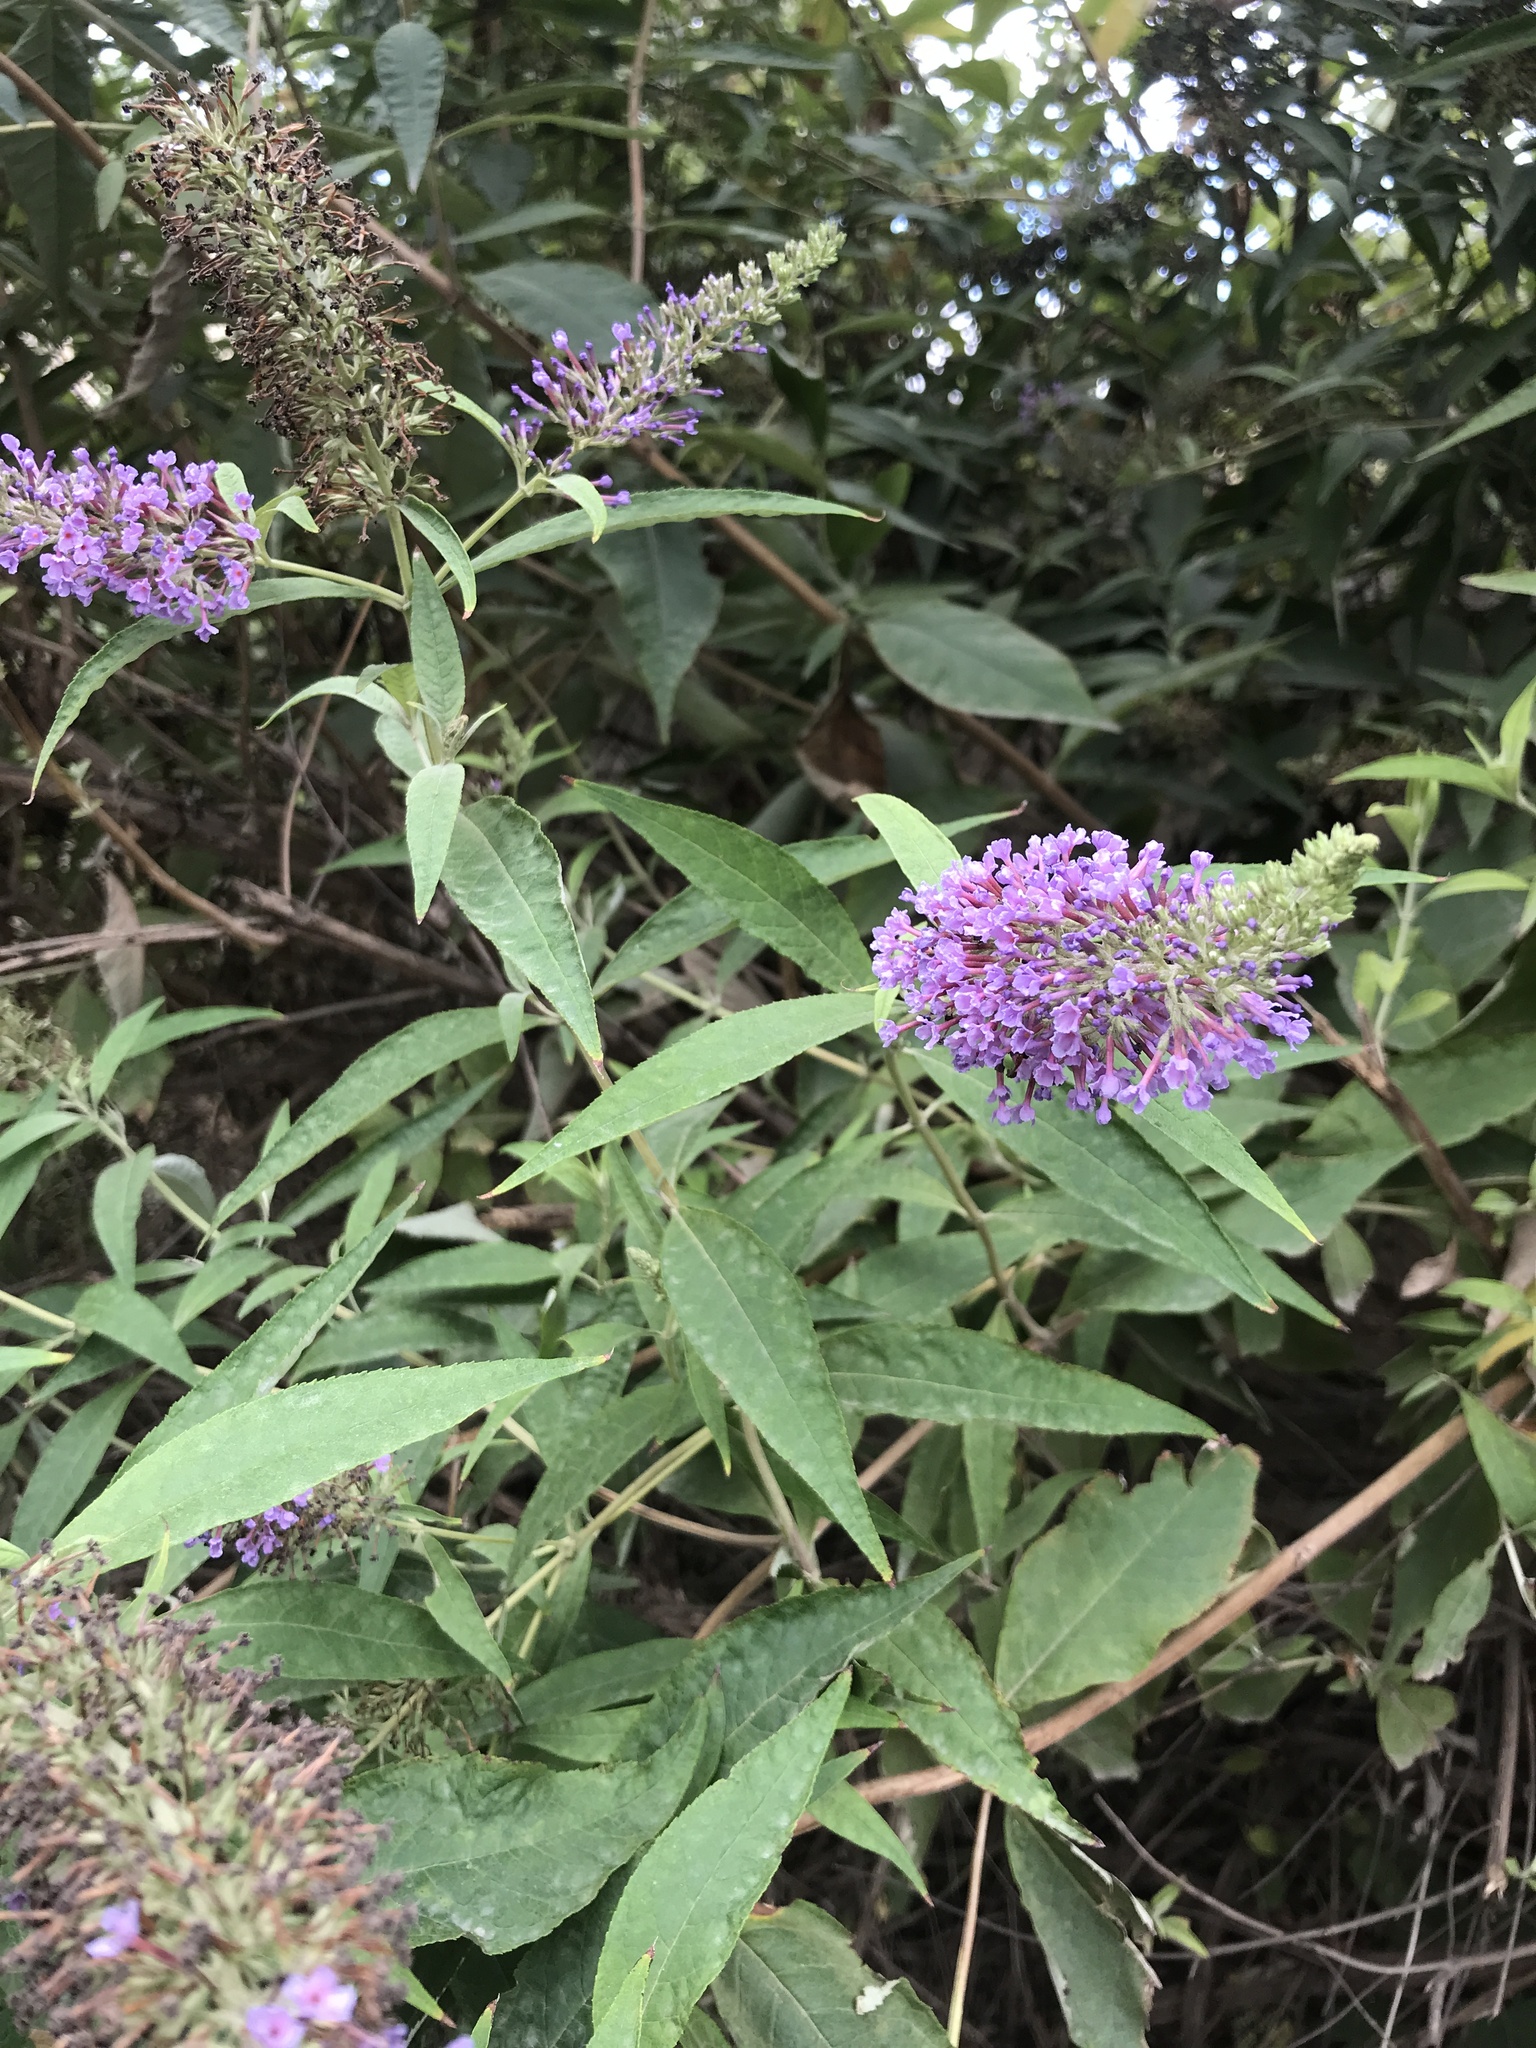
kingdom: Plantae
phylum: Tracheophyta
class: Magnoliopsida
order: Lamiales
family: Scrophulariaceae
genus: Buddleja
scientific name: Buddleja davidii
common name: Butterfly-bush
